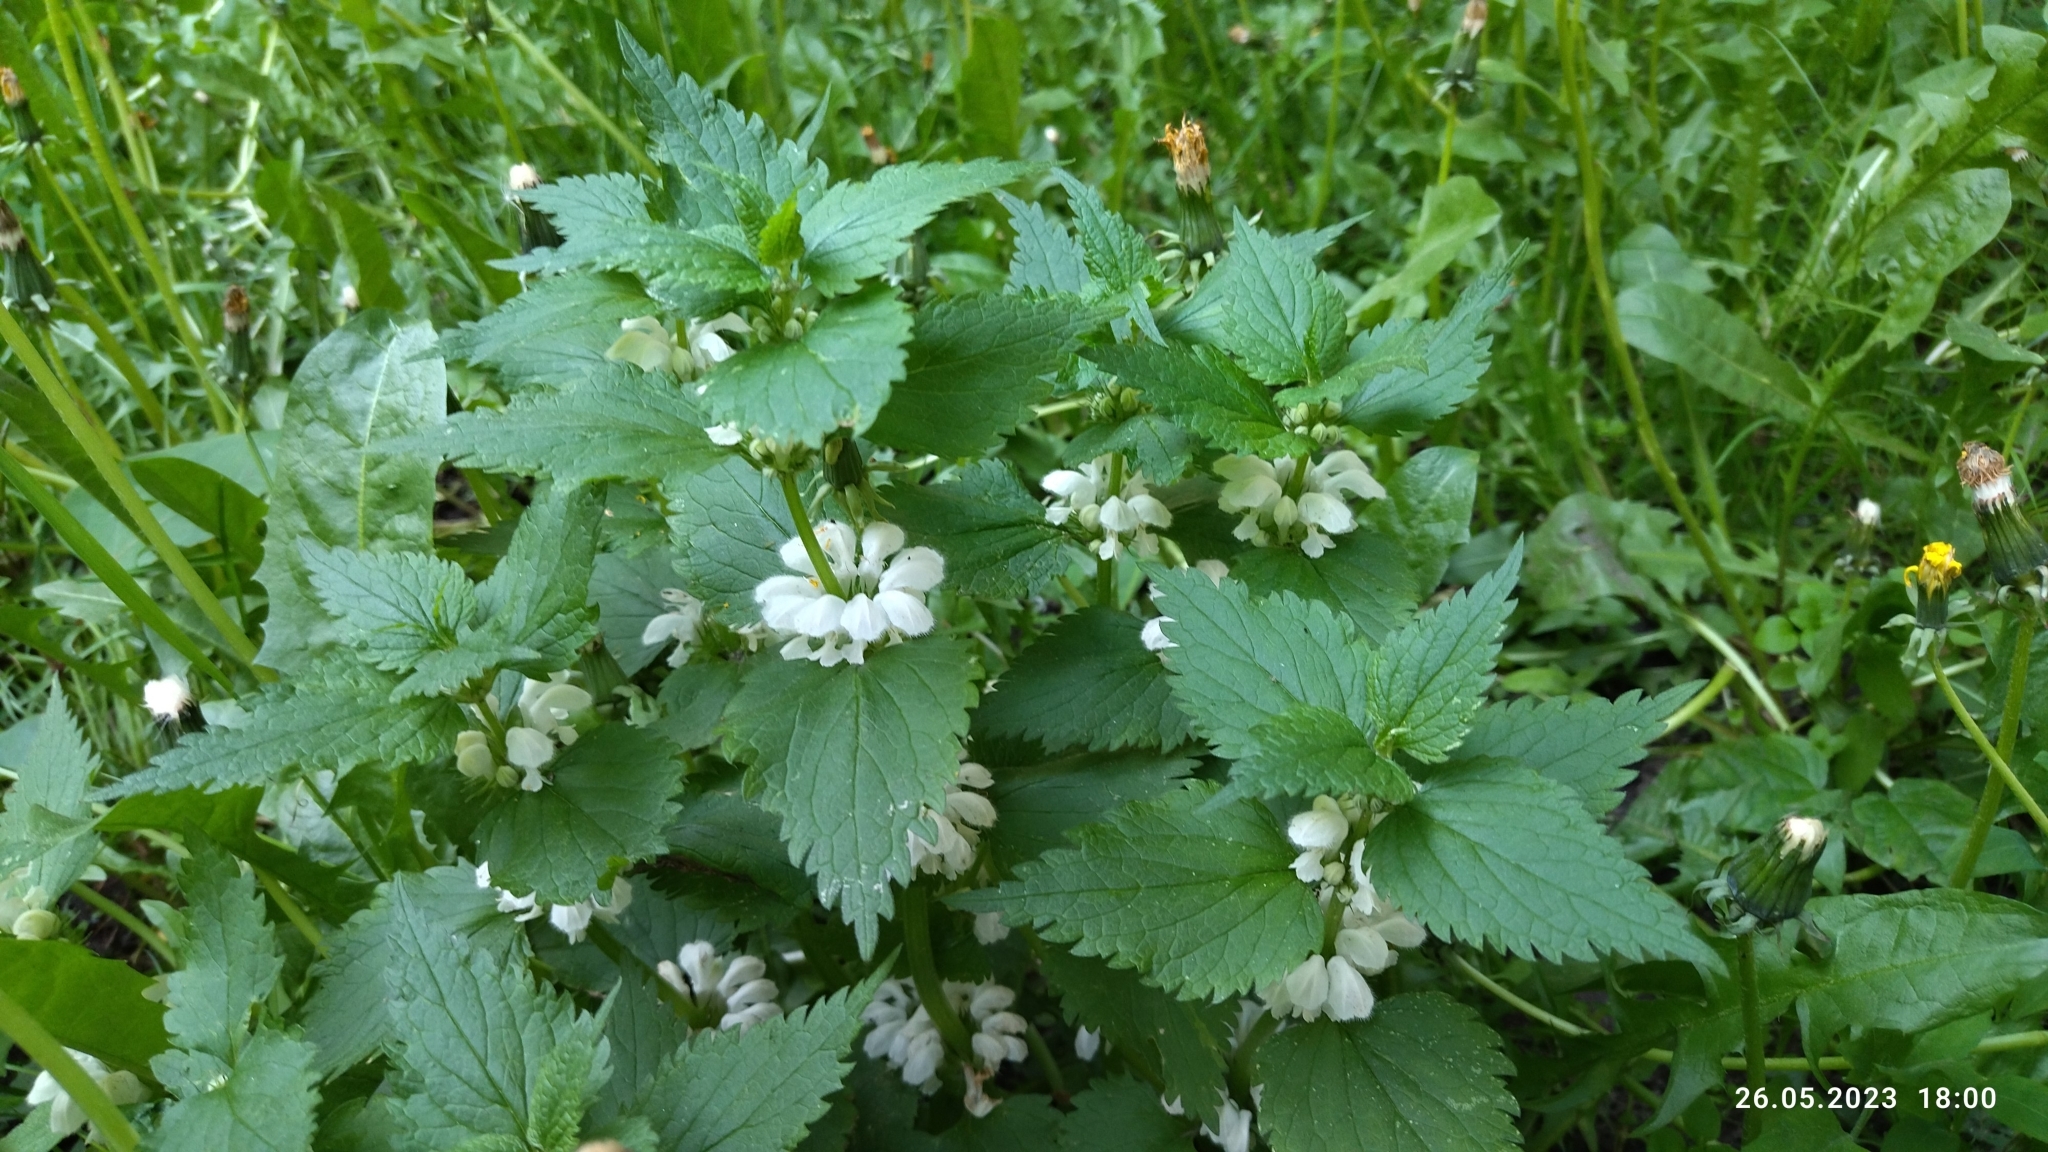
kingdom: Plantae
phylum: Tracheophyta
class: Magnoliopsida
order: Lamiales
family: Lamiaceae
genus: Lamium
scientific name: Lamium album
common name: White dead-nettle
